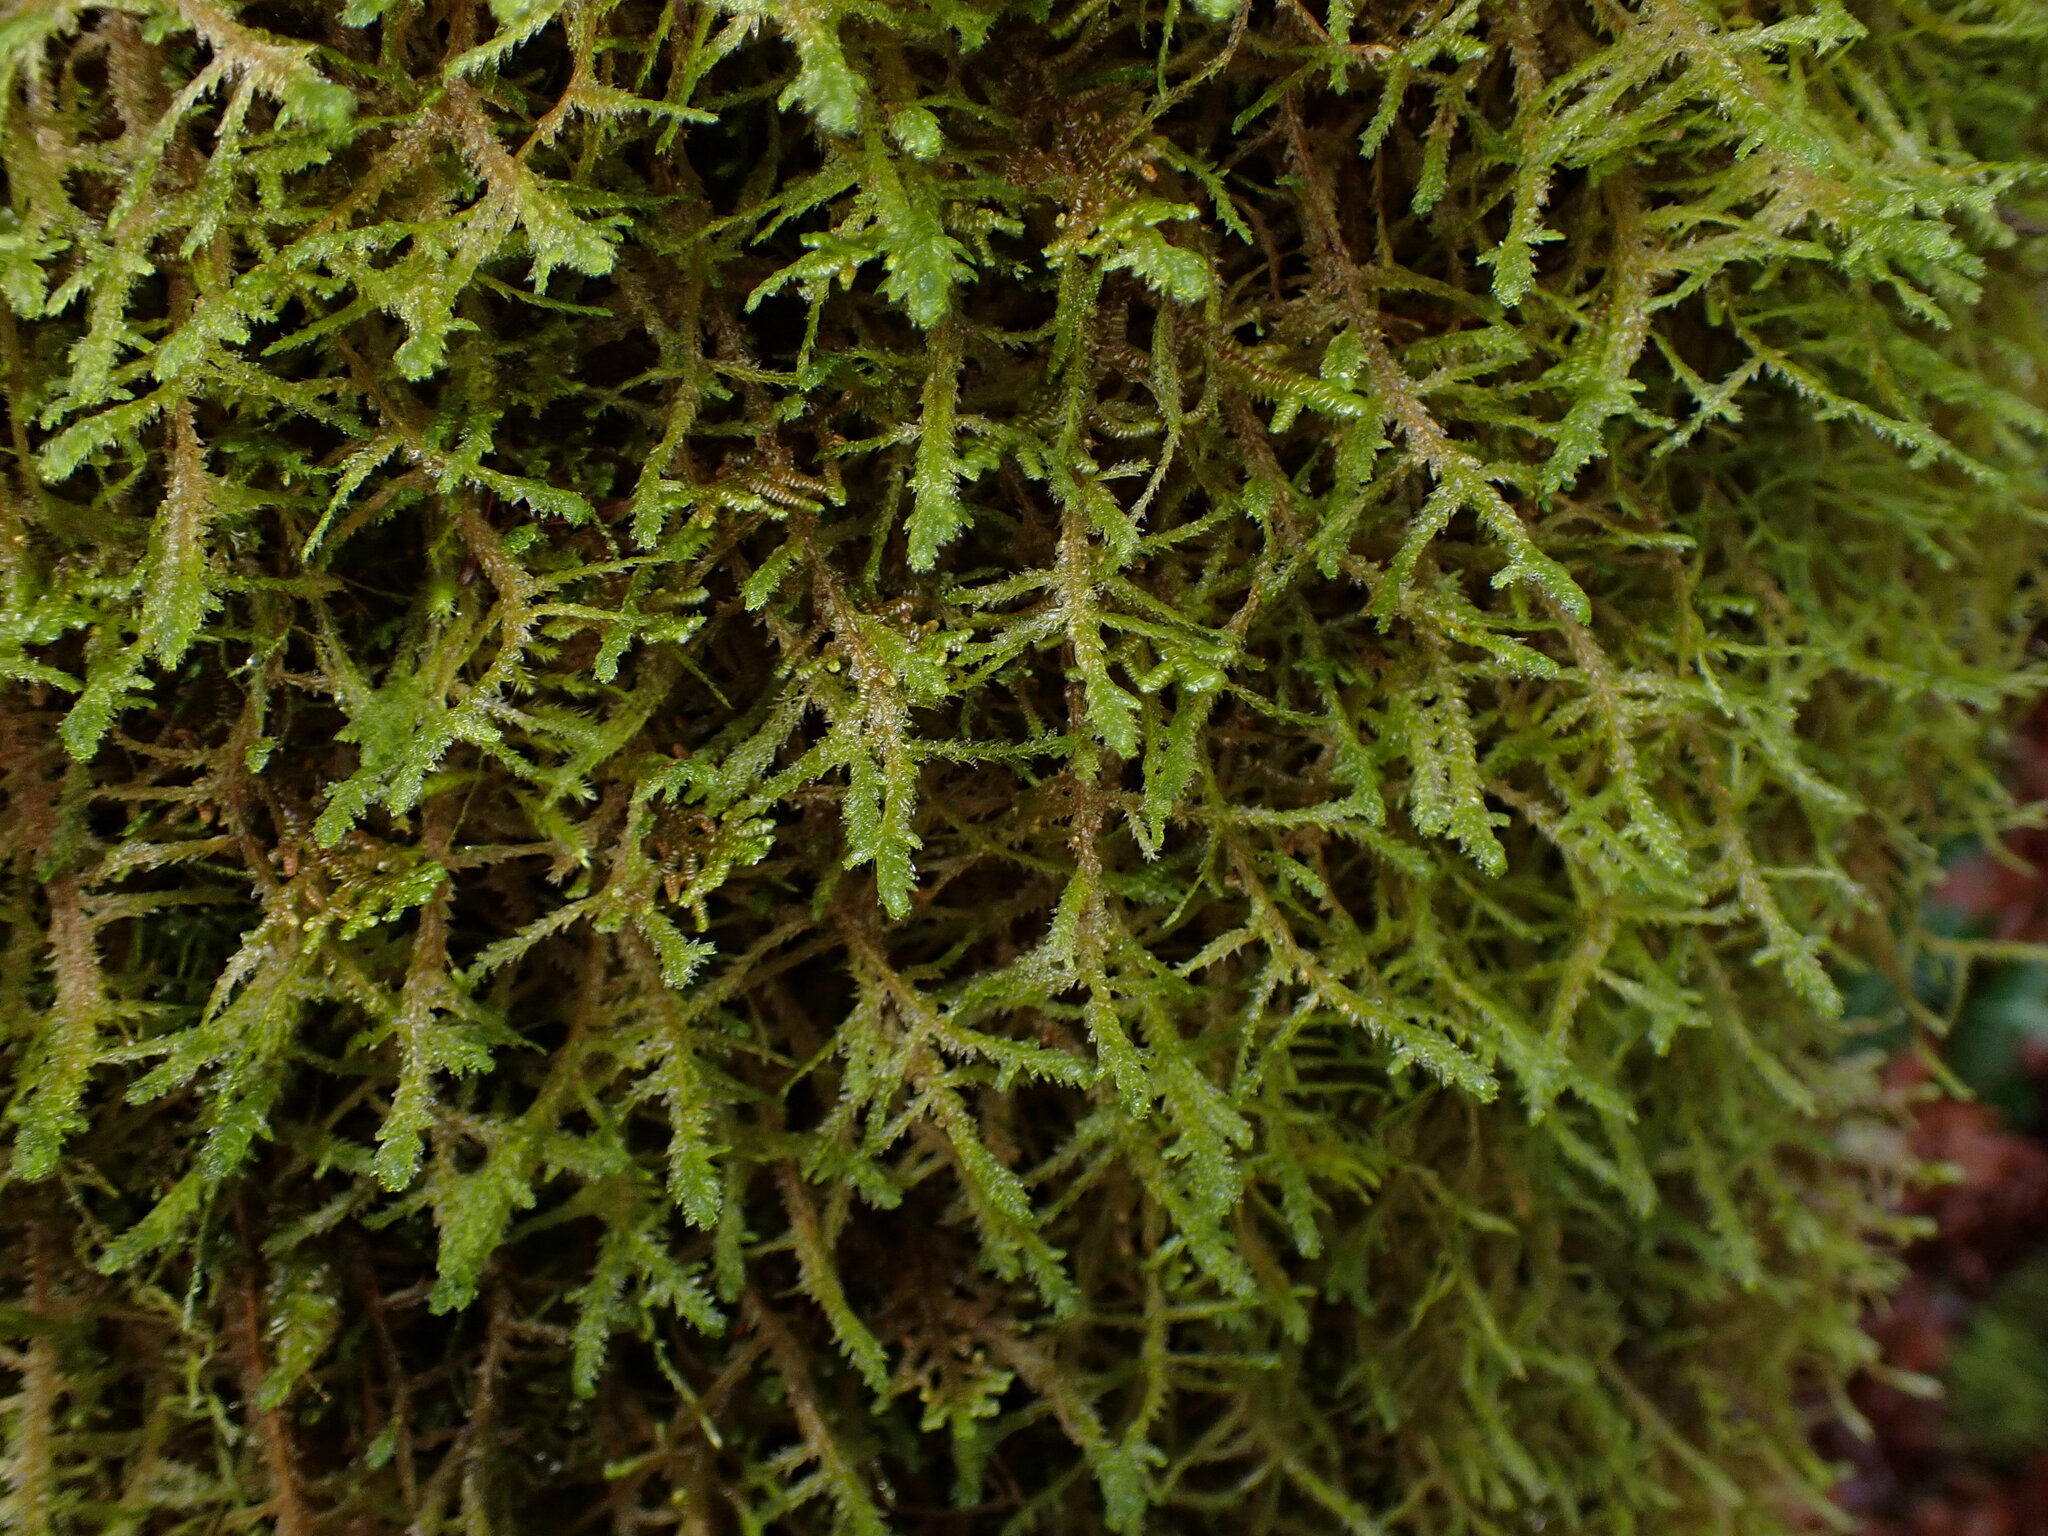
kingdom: Plantae
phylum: Bryophyta
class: Bryopsida
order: Hypnales
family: Neckeraceae
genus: Neckera
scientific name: Neckera douglasii
